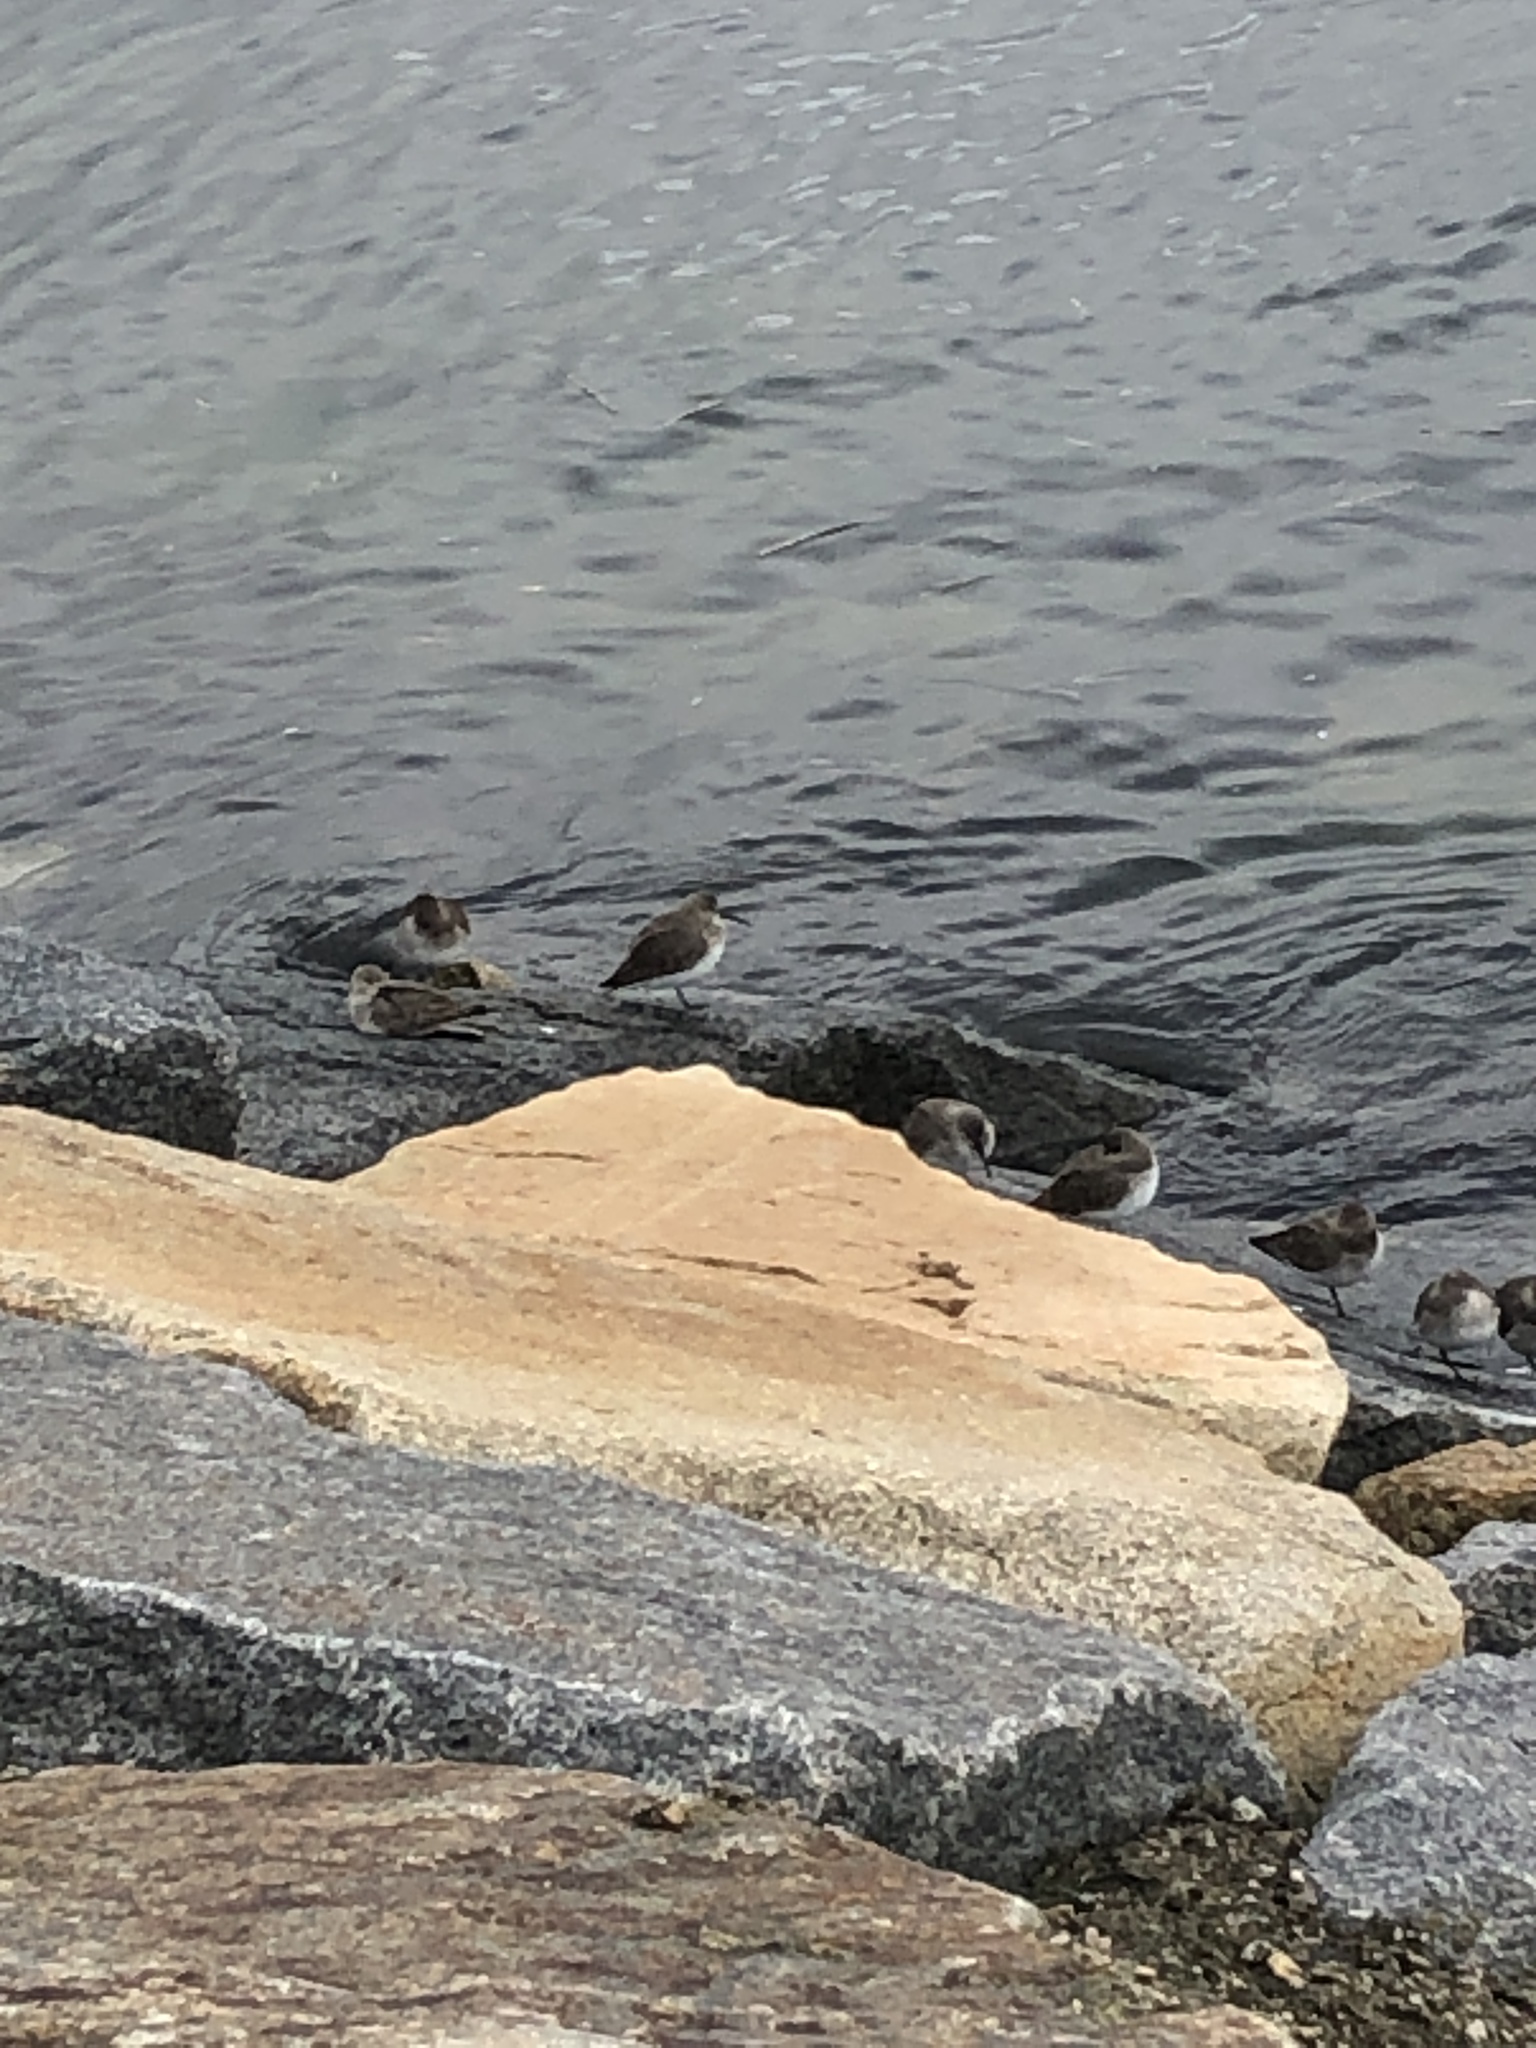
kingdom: Animalia
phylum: Chordata
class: Aves
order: Charadriiformes
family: Scolopacidae
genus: Calidris
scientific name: Calidris alpina
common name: Dunlin
